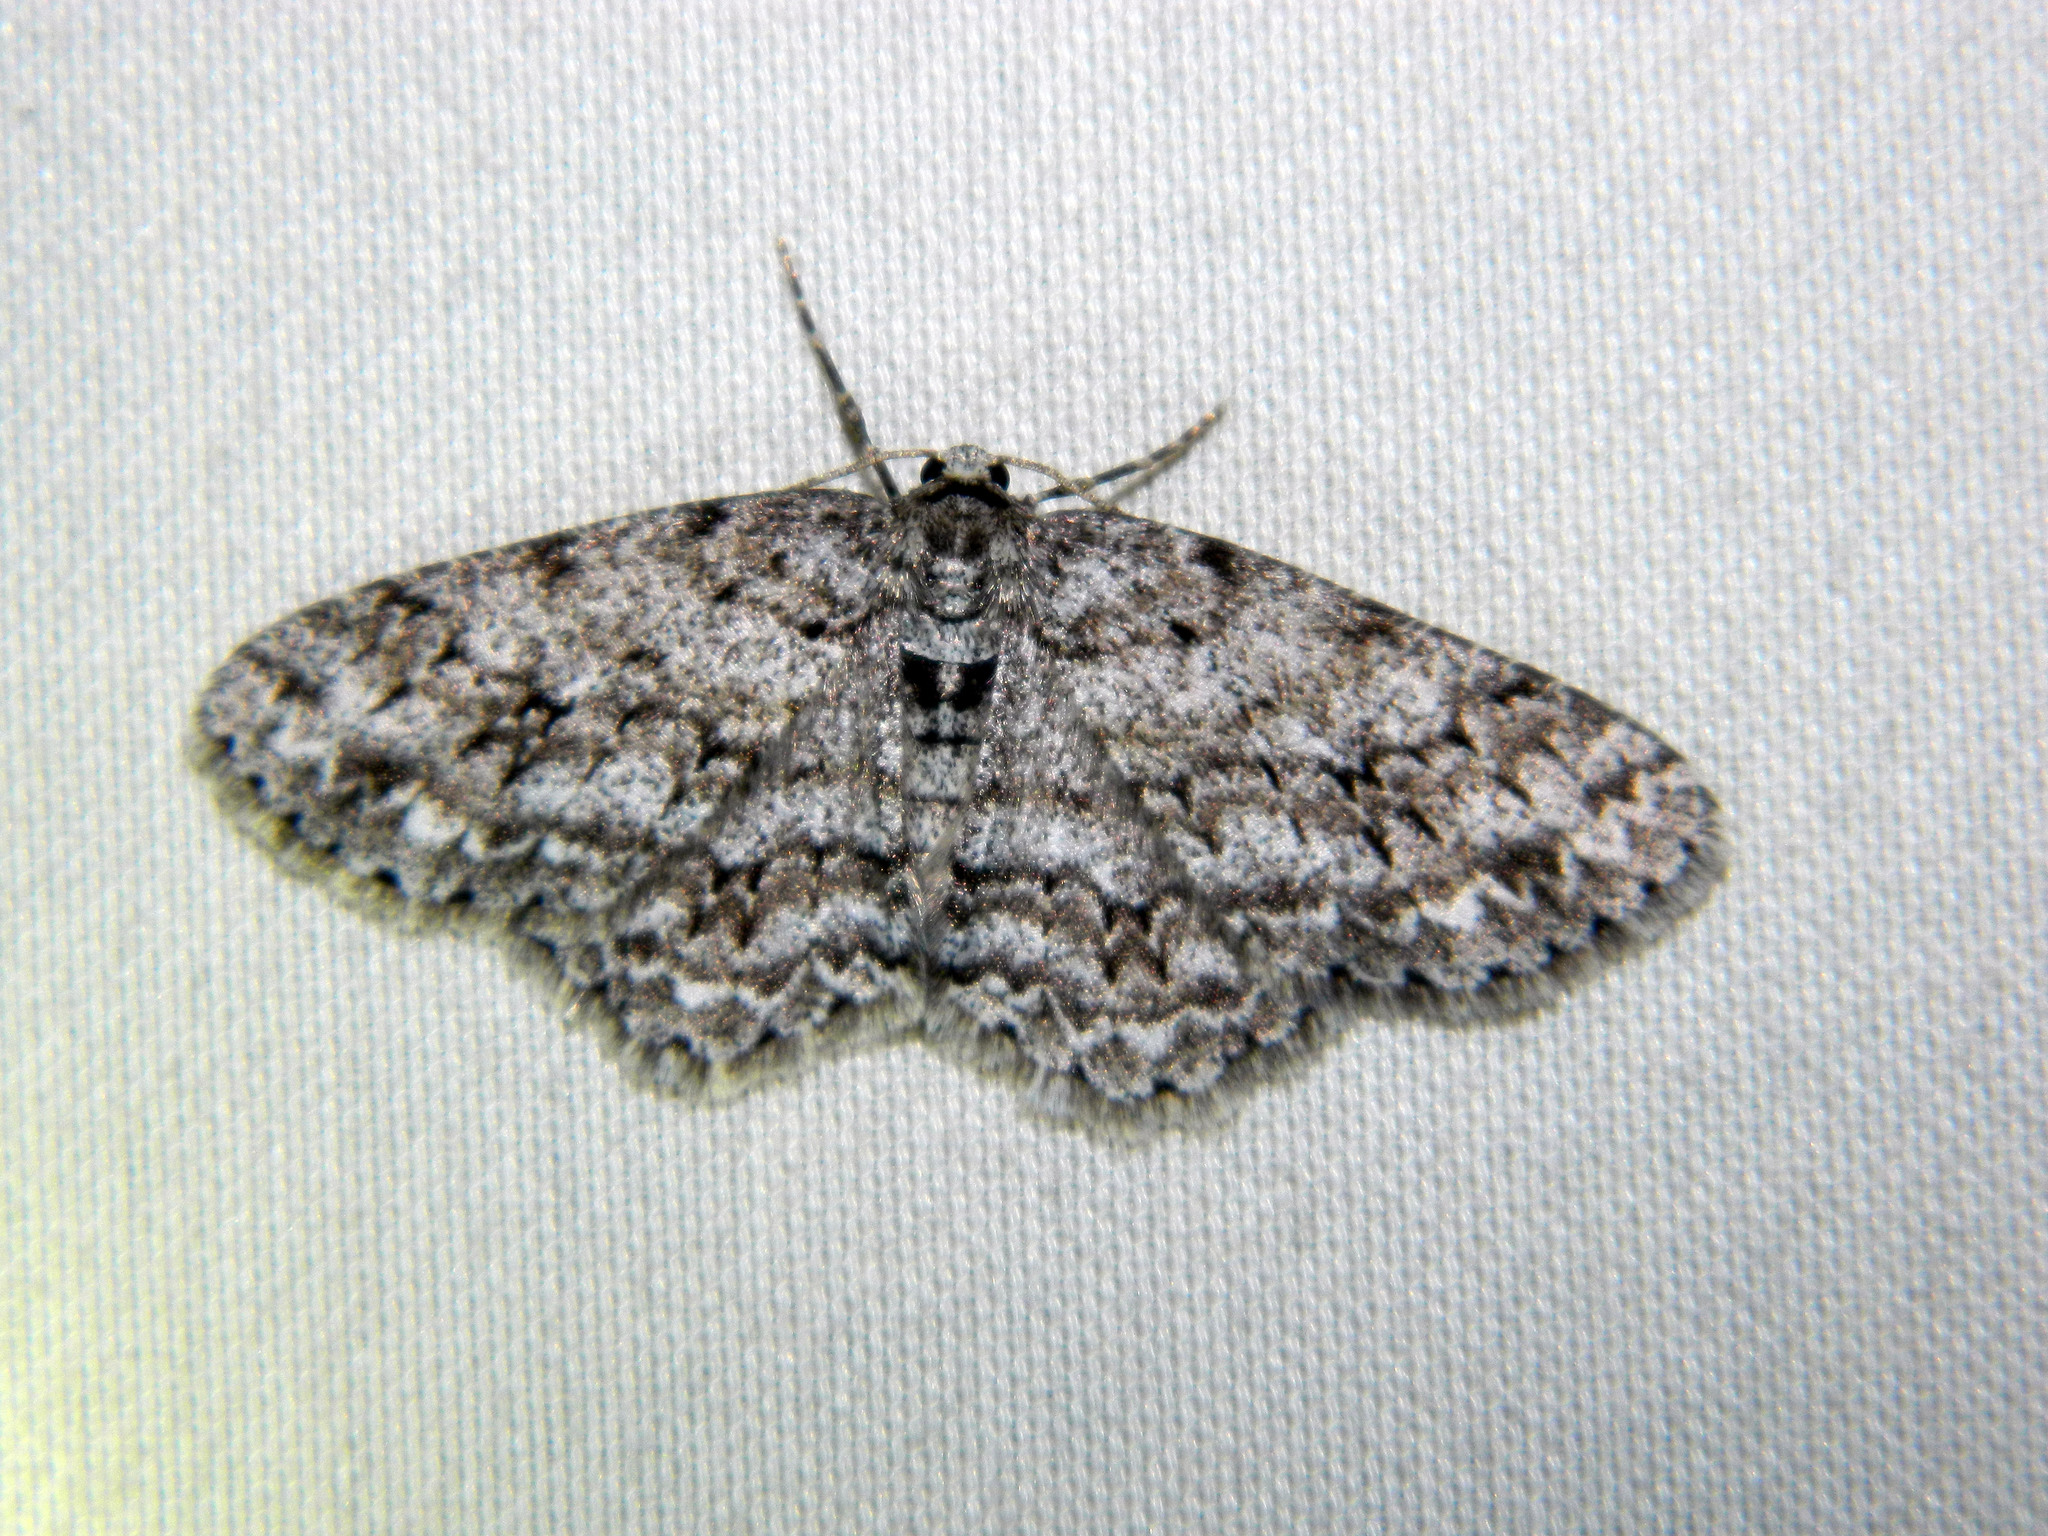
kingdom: Animalia
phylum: Arthropoda
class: Insecta
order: Lepidoptera
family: Geometridae
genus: Ectropis
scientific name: Ectropis crepuscularia
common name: Engrailed
